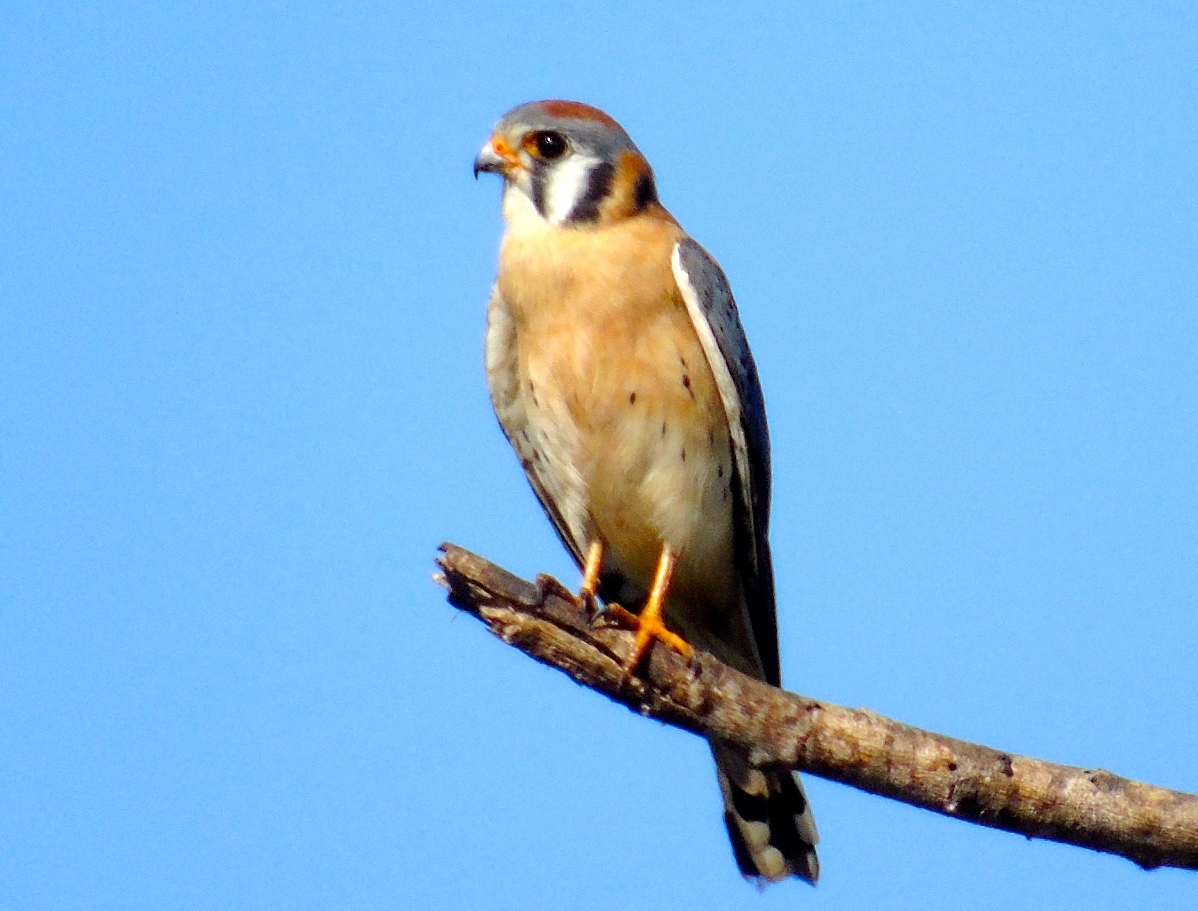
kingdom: Animalia
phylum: Chordata
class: Aves
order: Falconiformes
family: Falconidae
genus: Falco
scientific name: Falco sparverius
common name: American kestrel
